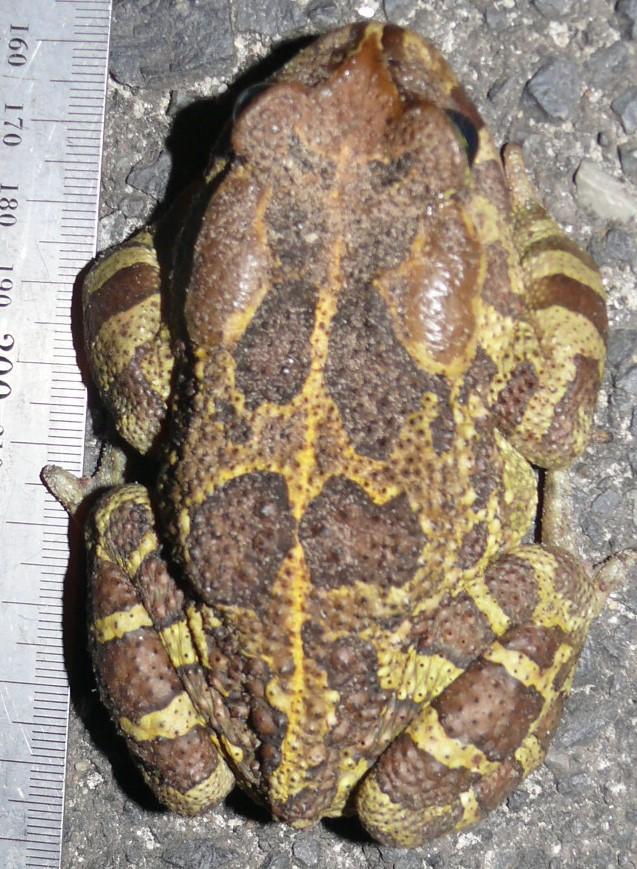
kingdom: Animalia
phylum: Chordata
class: Amphibia
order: Anura
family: Bufonidae
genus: Sclerophrys
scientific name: Sclerophrys pantherina
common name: Panther toad
